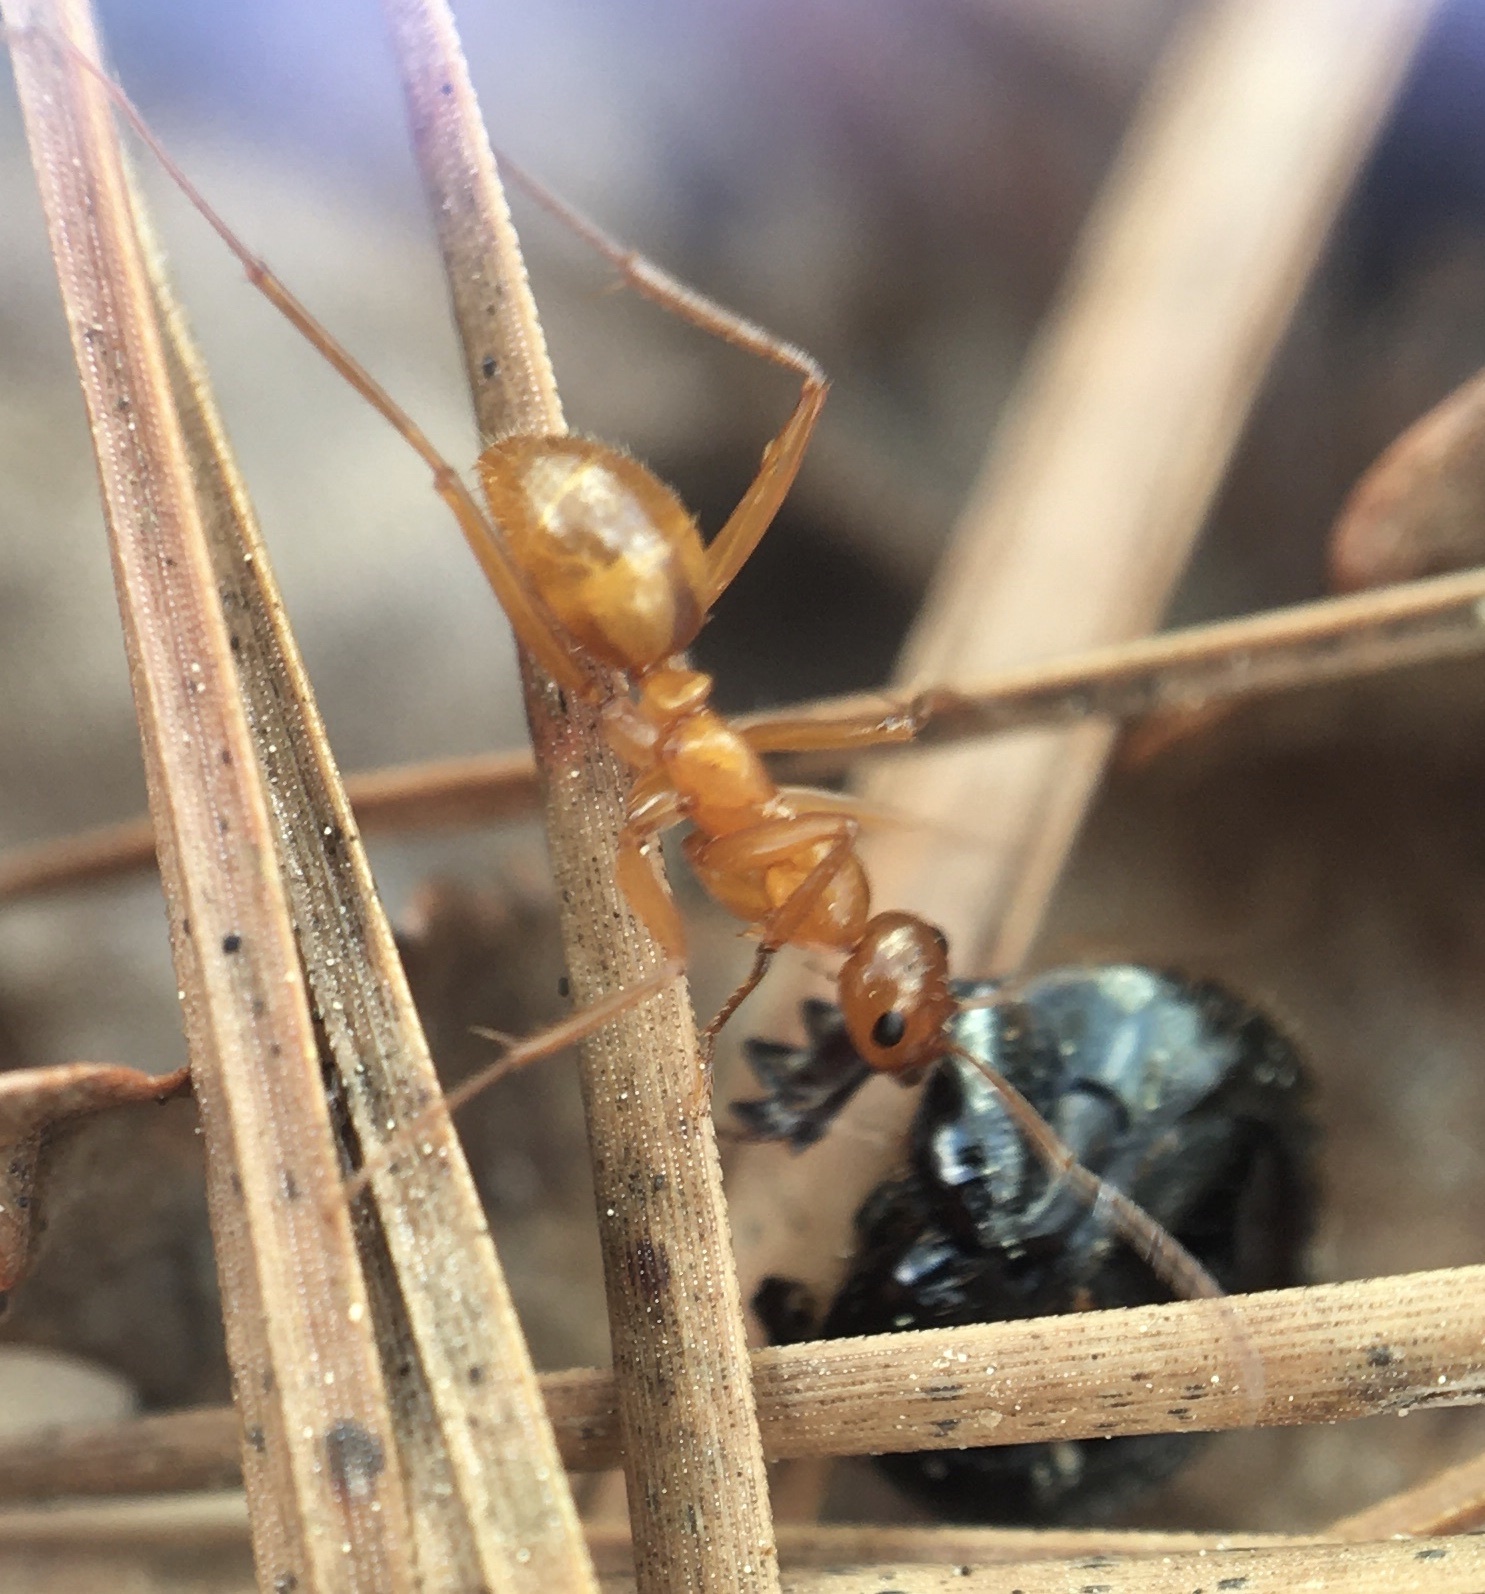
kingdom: Animalia
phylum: Arthropoda
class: Insecta
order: Hymenoptera
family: Formicidae
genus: Formica
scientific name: Formica pallidefulva
